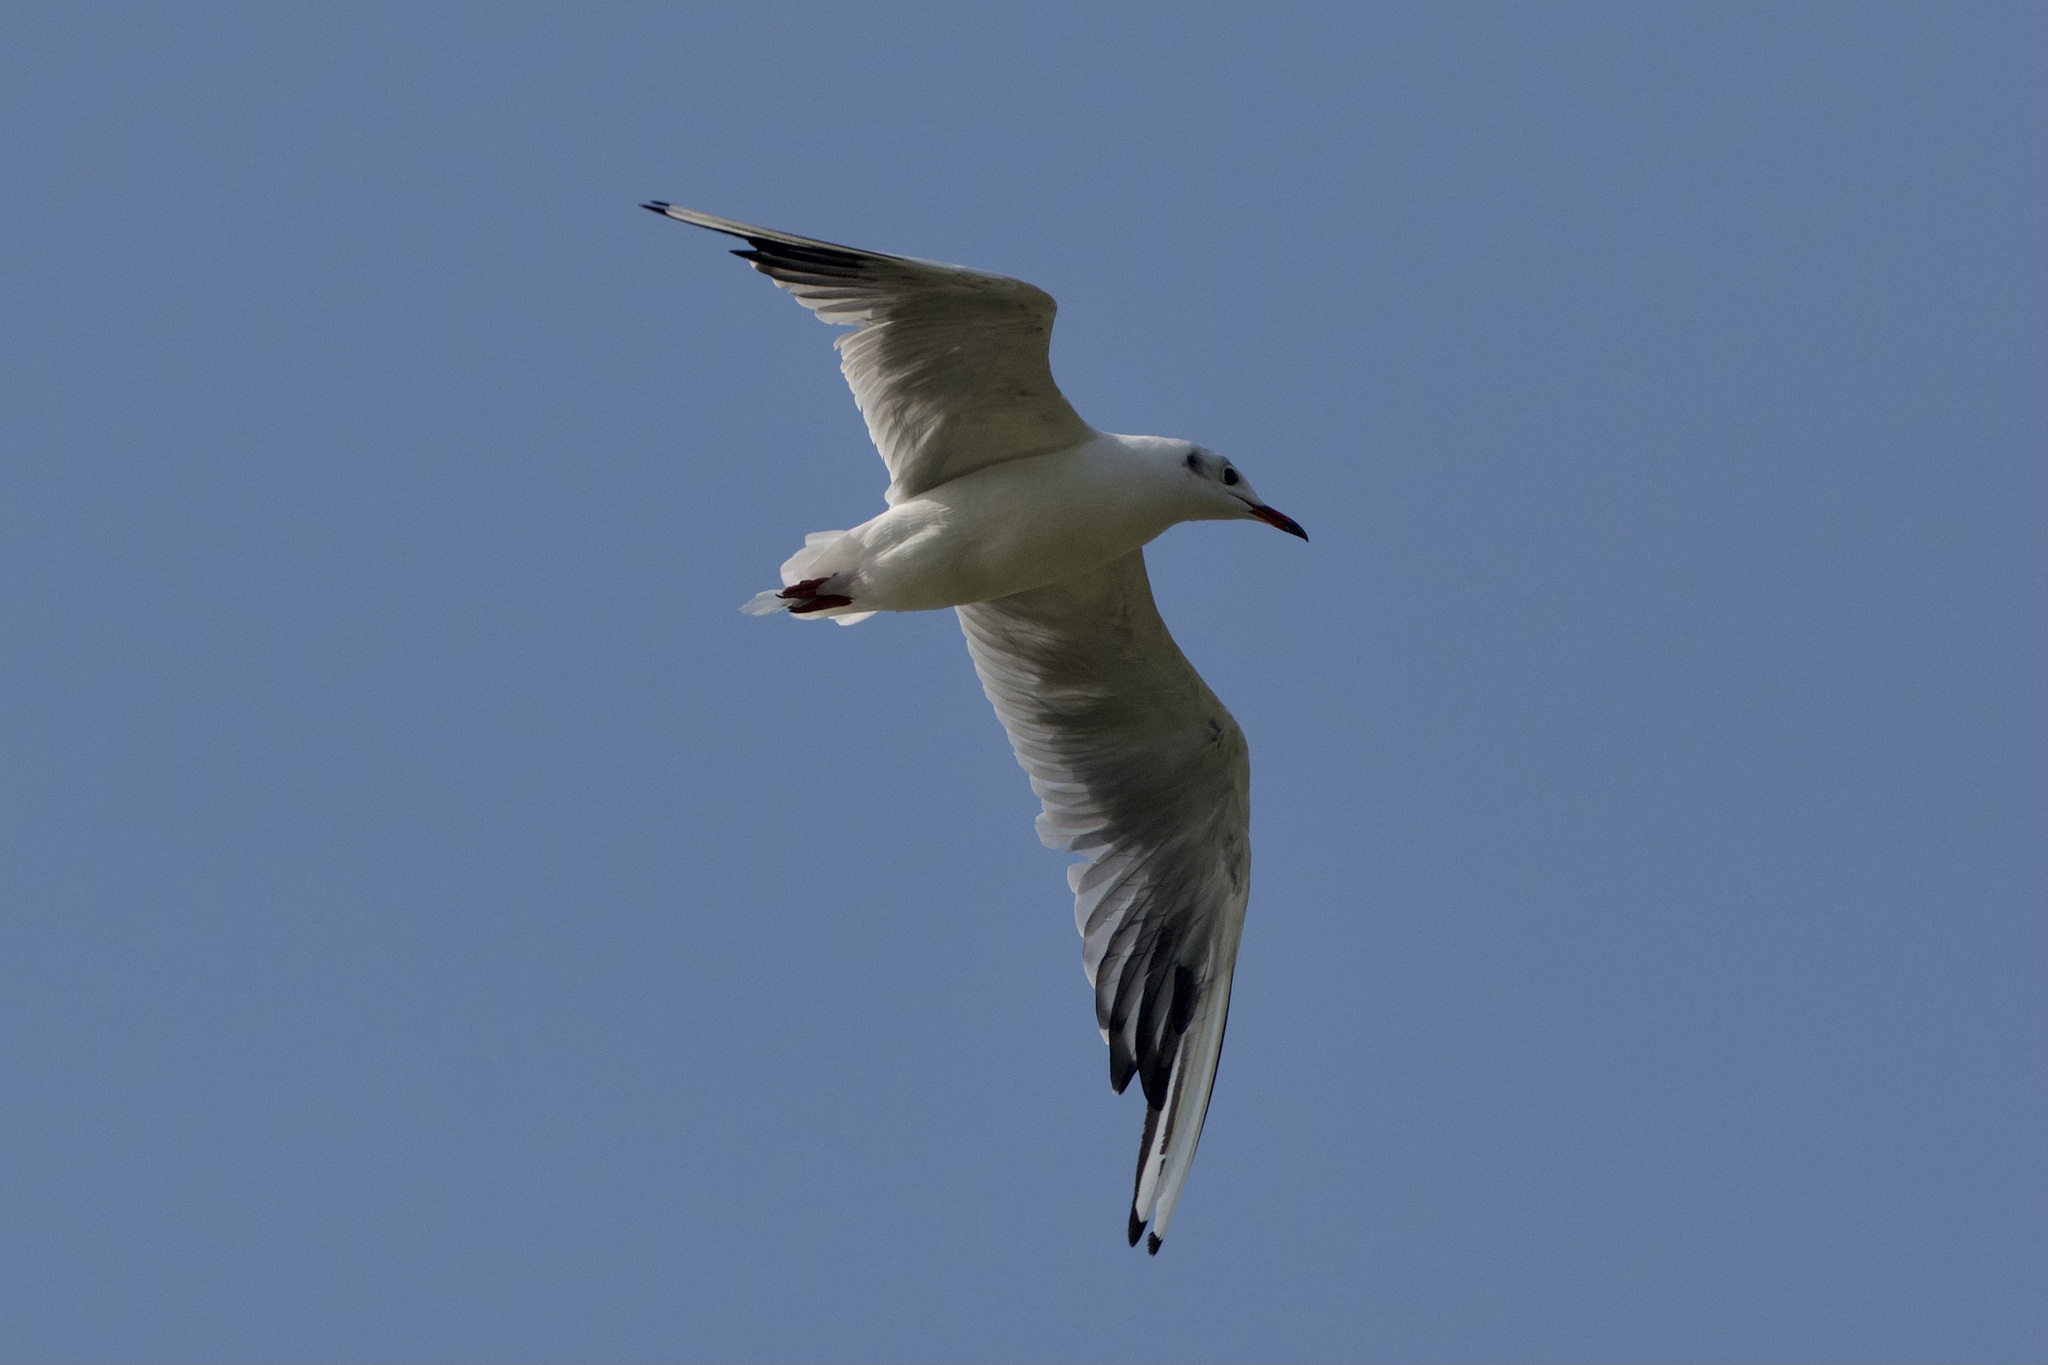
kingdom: Animalia
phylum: Chordata
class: Aves
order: Charadriiformes
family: Laridae
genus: Chroicocephalus
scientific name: Chroicocephalus ridibundus
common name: Black-headed gull
